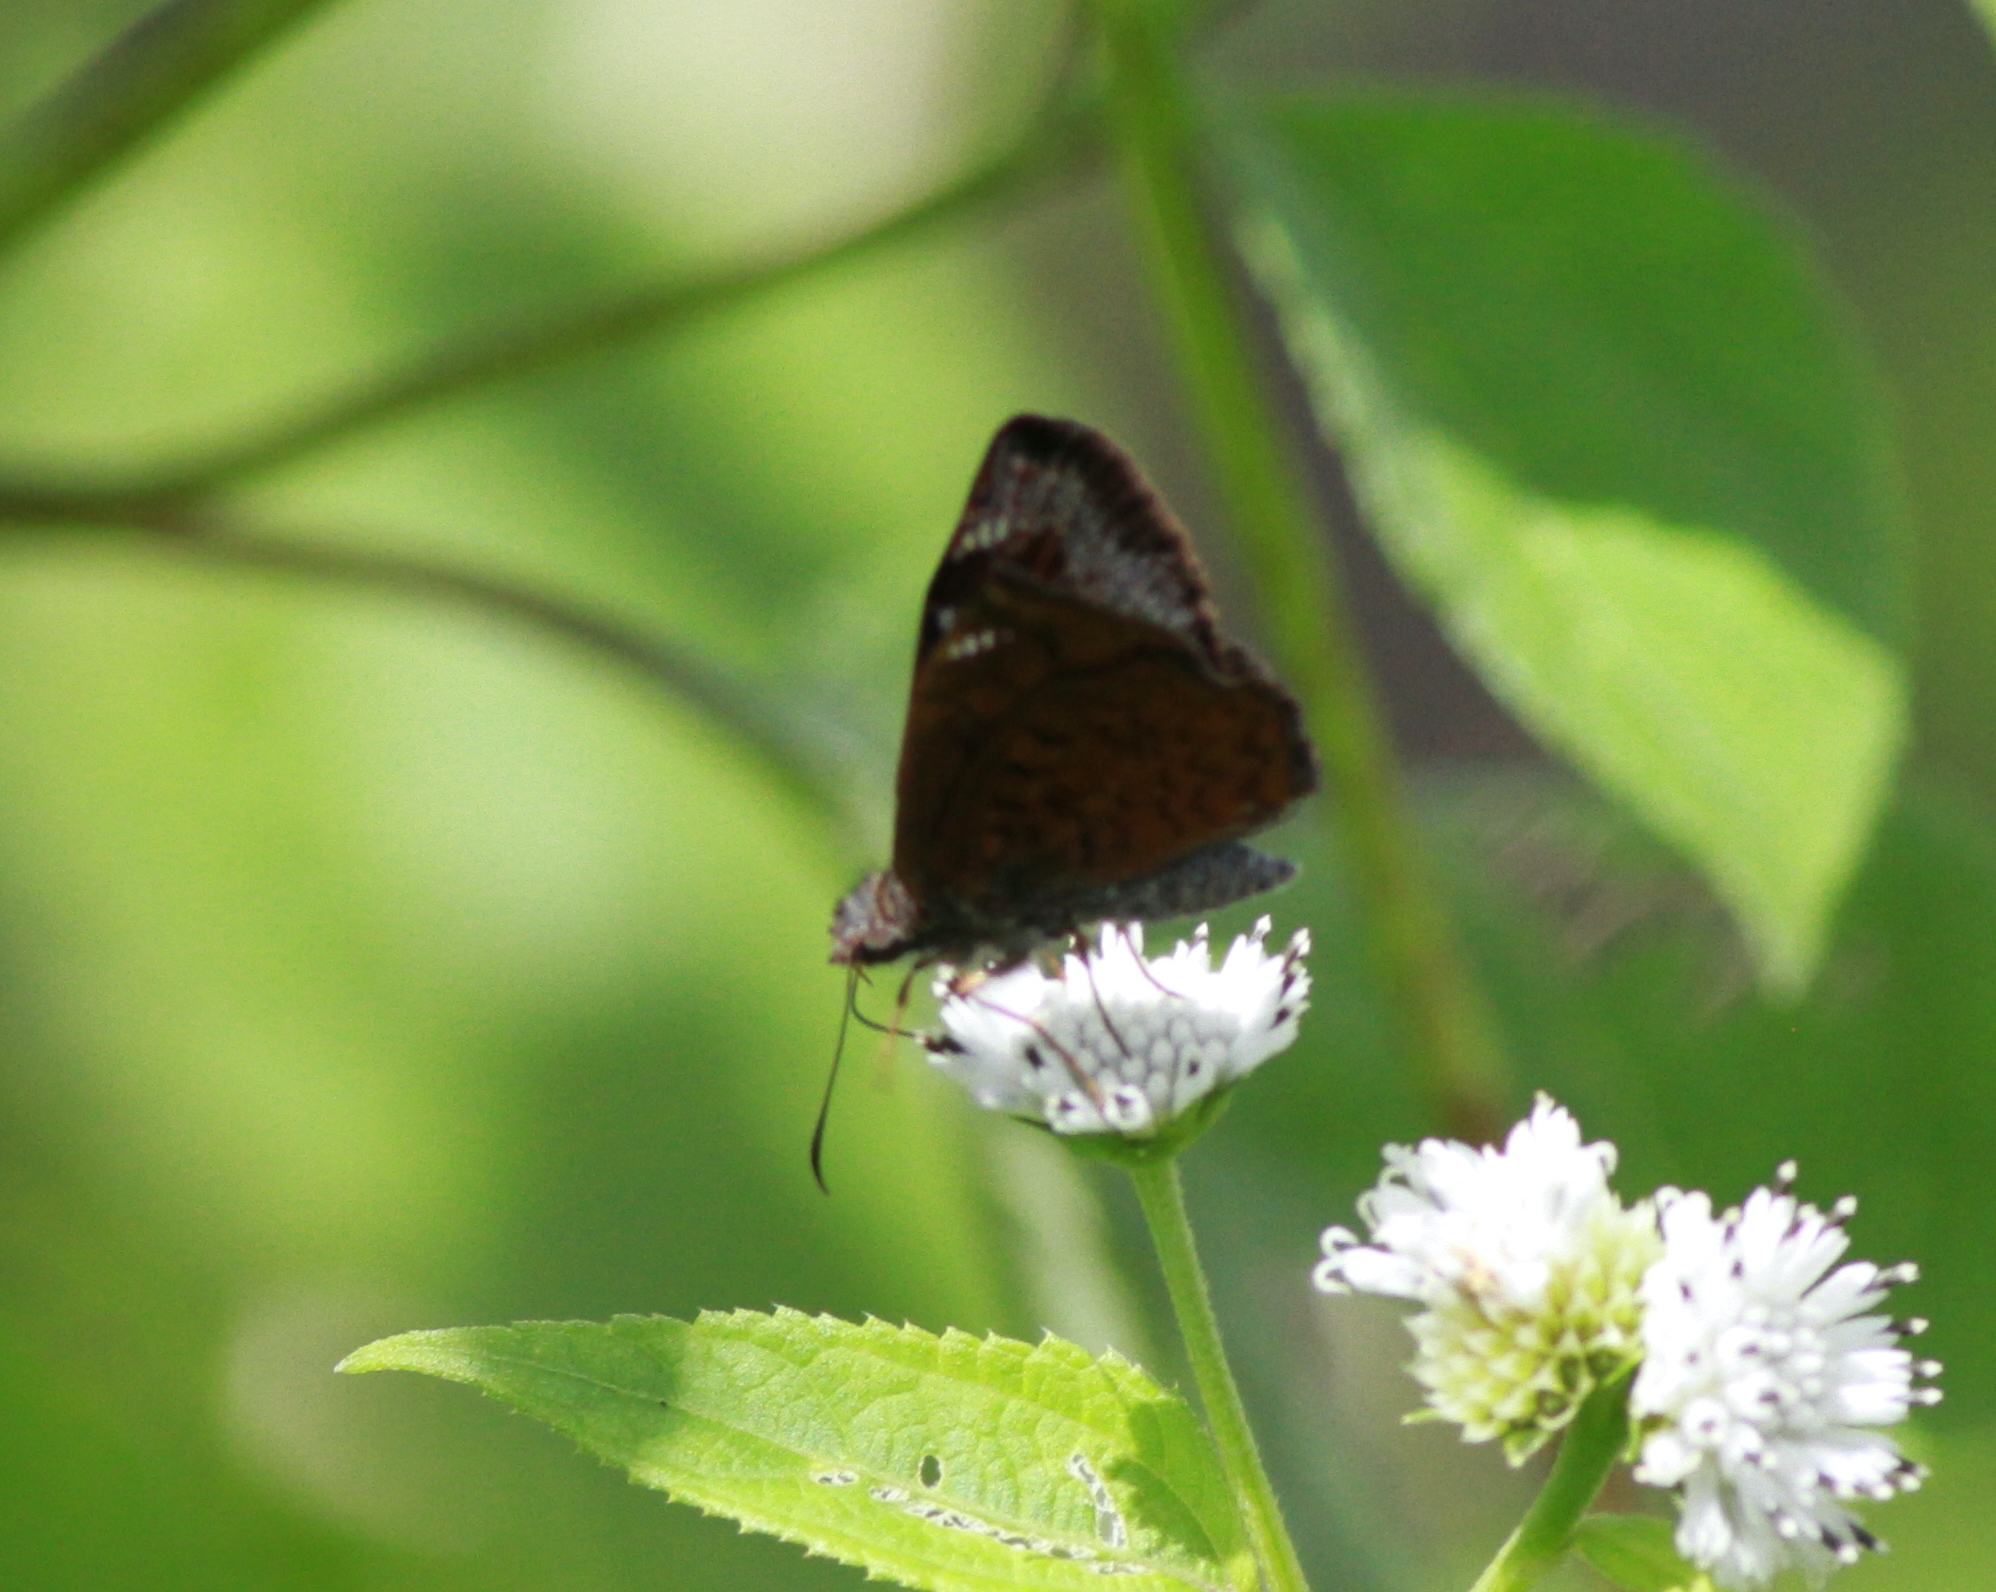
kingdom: Animalia
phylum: Arthropoda
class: Insecta
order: Lepidoptera
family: Hesperiidae
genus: Antigonus
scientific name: Antigonus erosus
